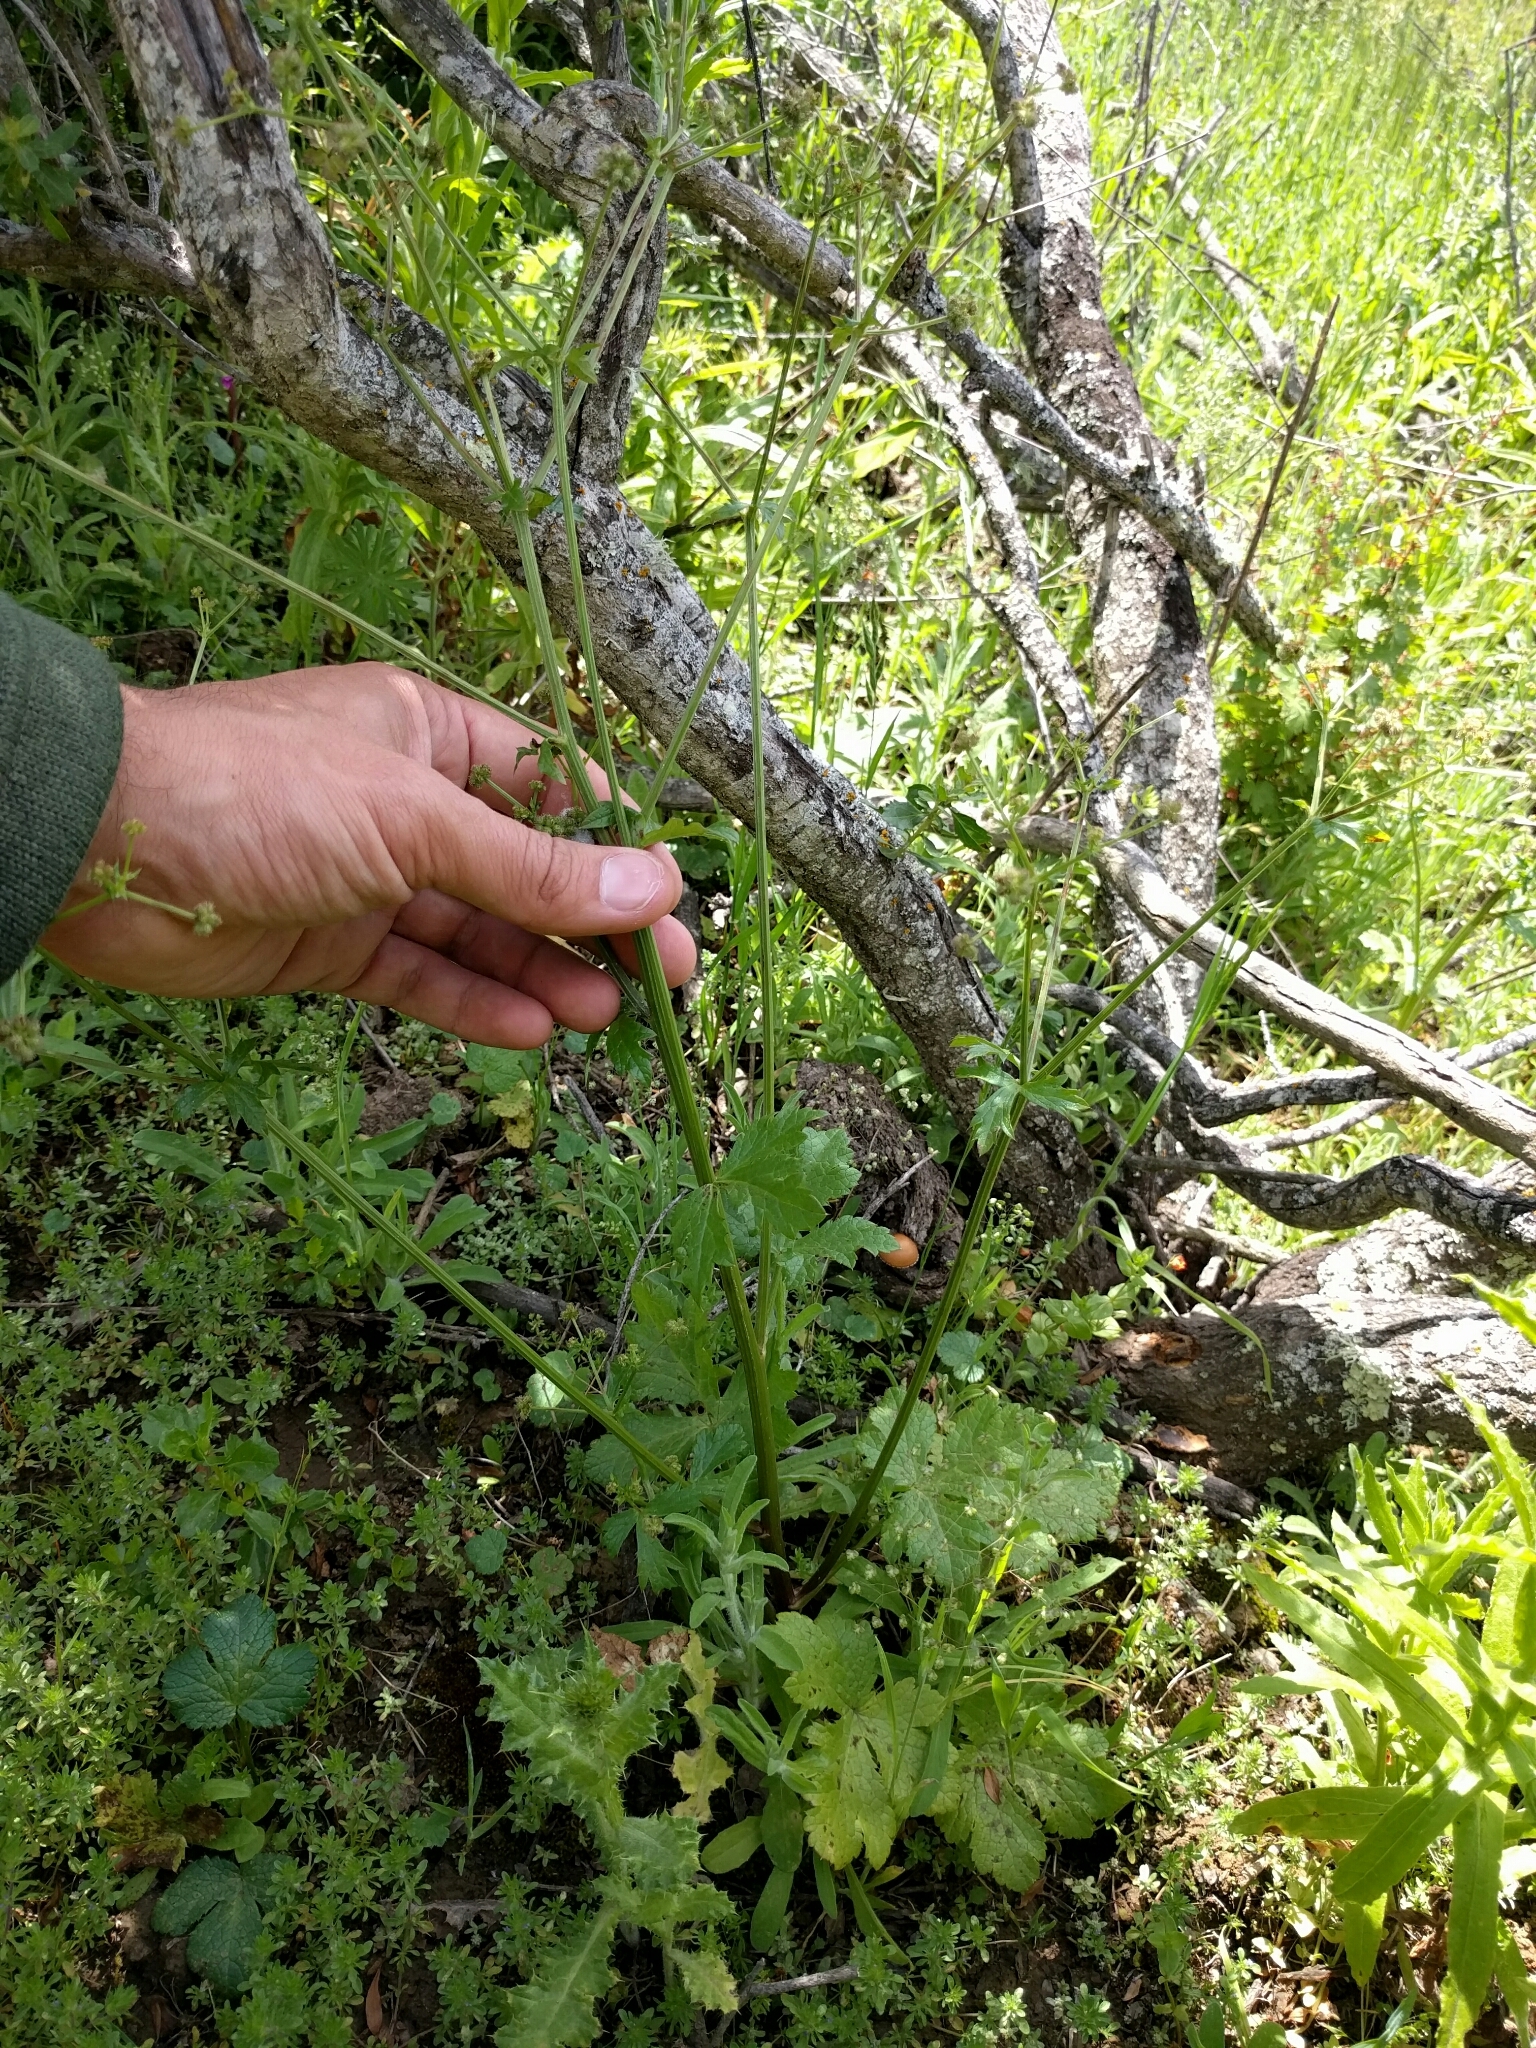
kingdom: Plantae
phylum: Tracheophyta
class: Magnoliopsida
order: Apiales
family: Apiaceae
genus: Sanicula
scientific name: Sanicula crassicaulis
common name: Western snakeroot
